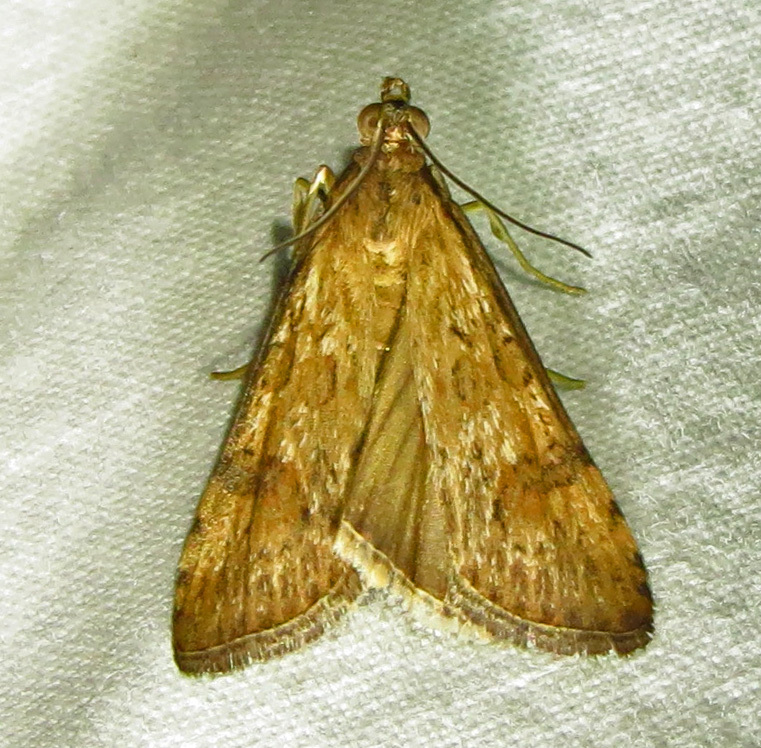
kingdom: Animalia
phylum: Arthropoda
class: Insecta
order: Lepidoptera
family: Crambidae
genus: Nomophila
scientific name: Nomophila nearctica
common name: American rush veneer
